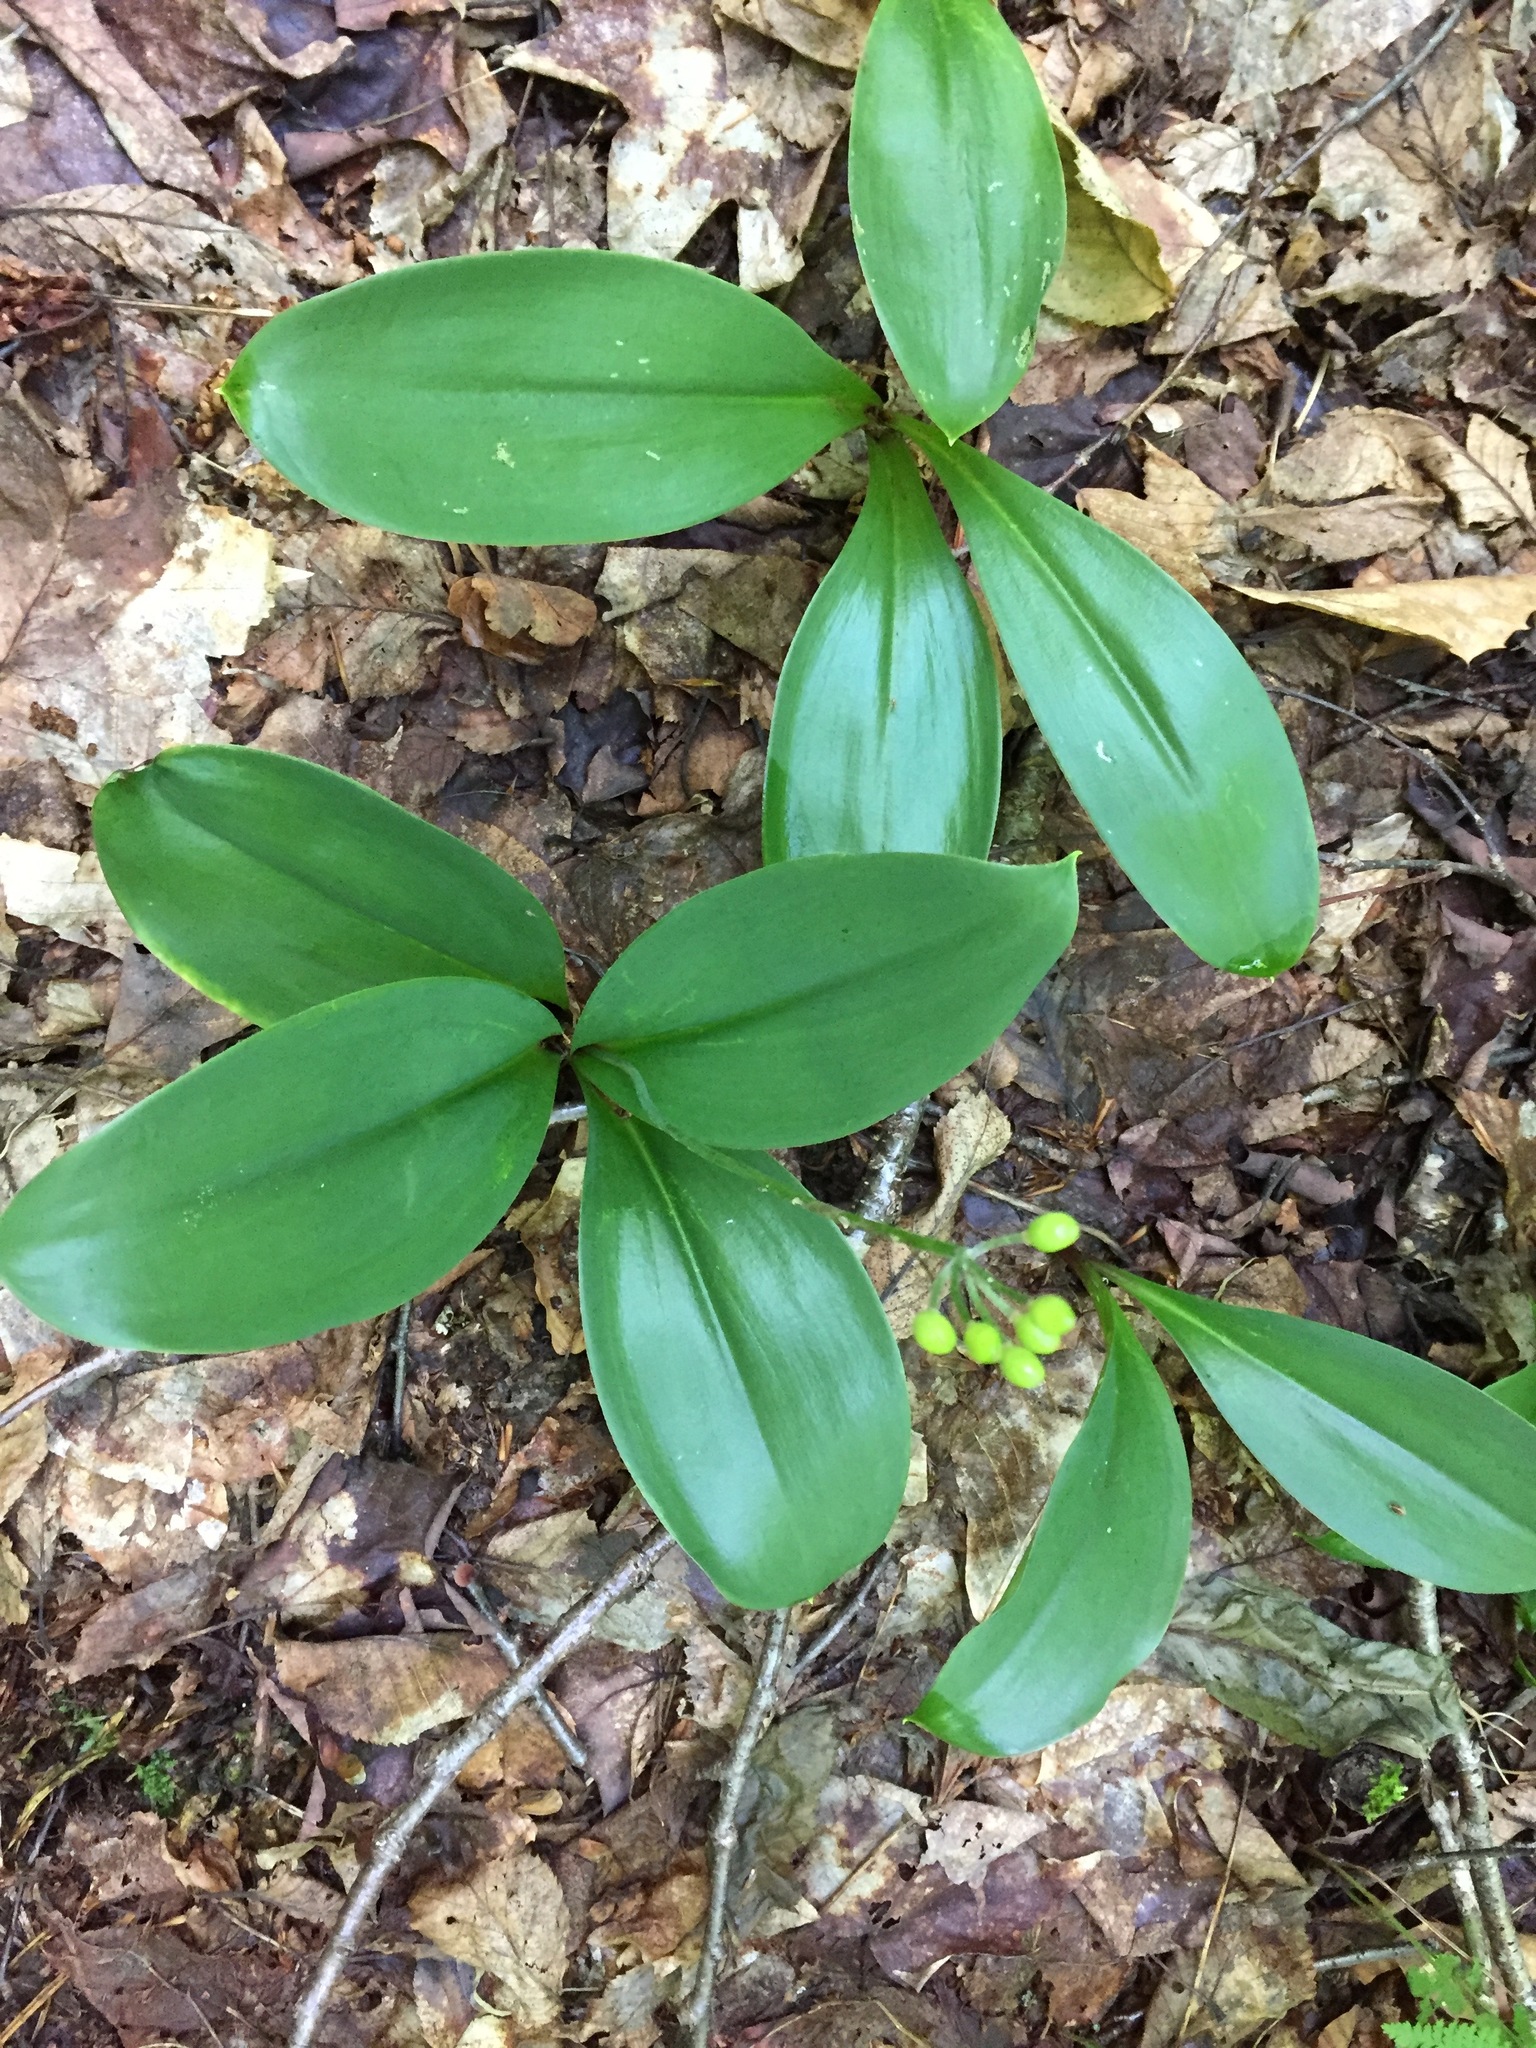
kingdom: Plantae
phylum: Tracheophyta
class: Liliopsida
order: Liliales
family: Liliaceae
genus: Clintonia
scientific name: Clintonia borealis
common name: Yellow clintonia
